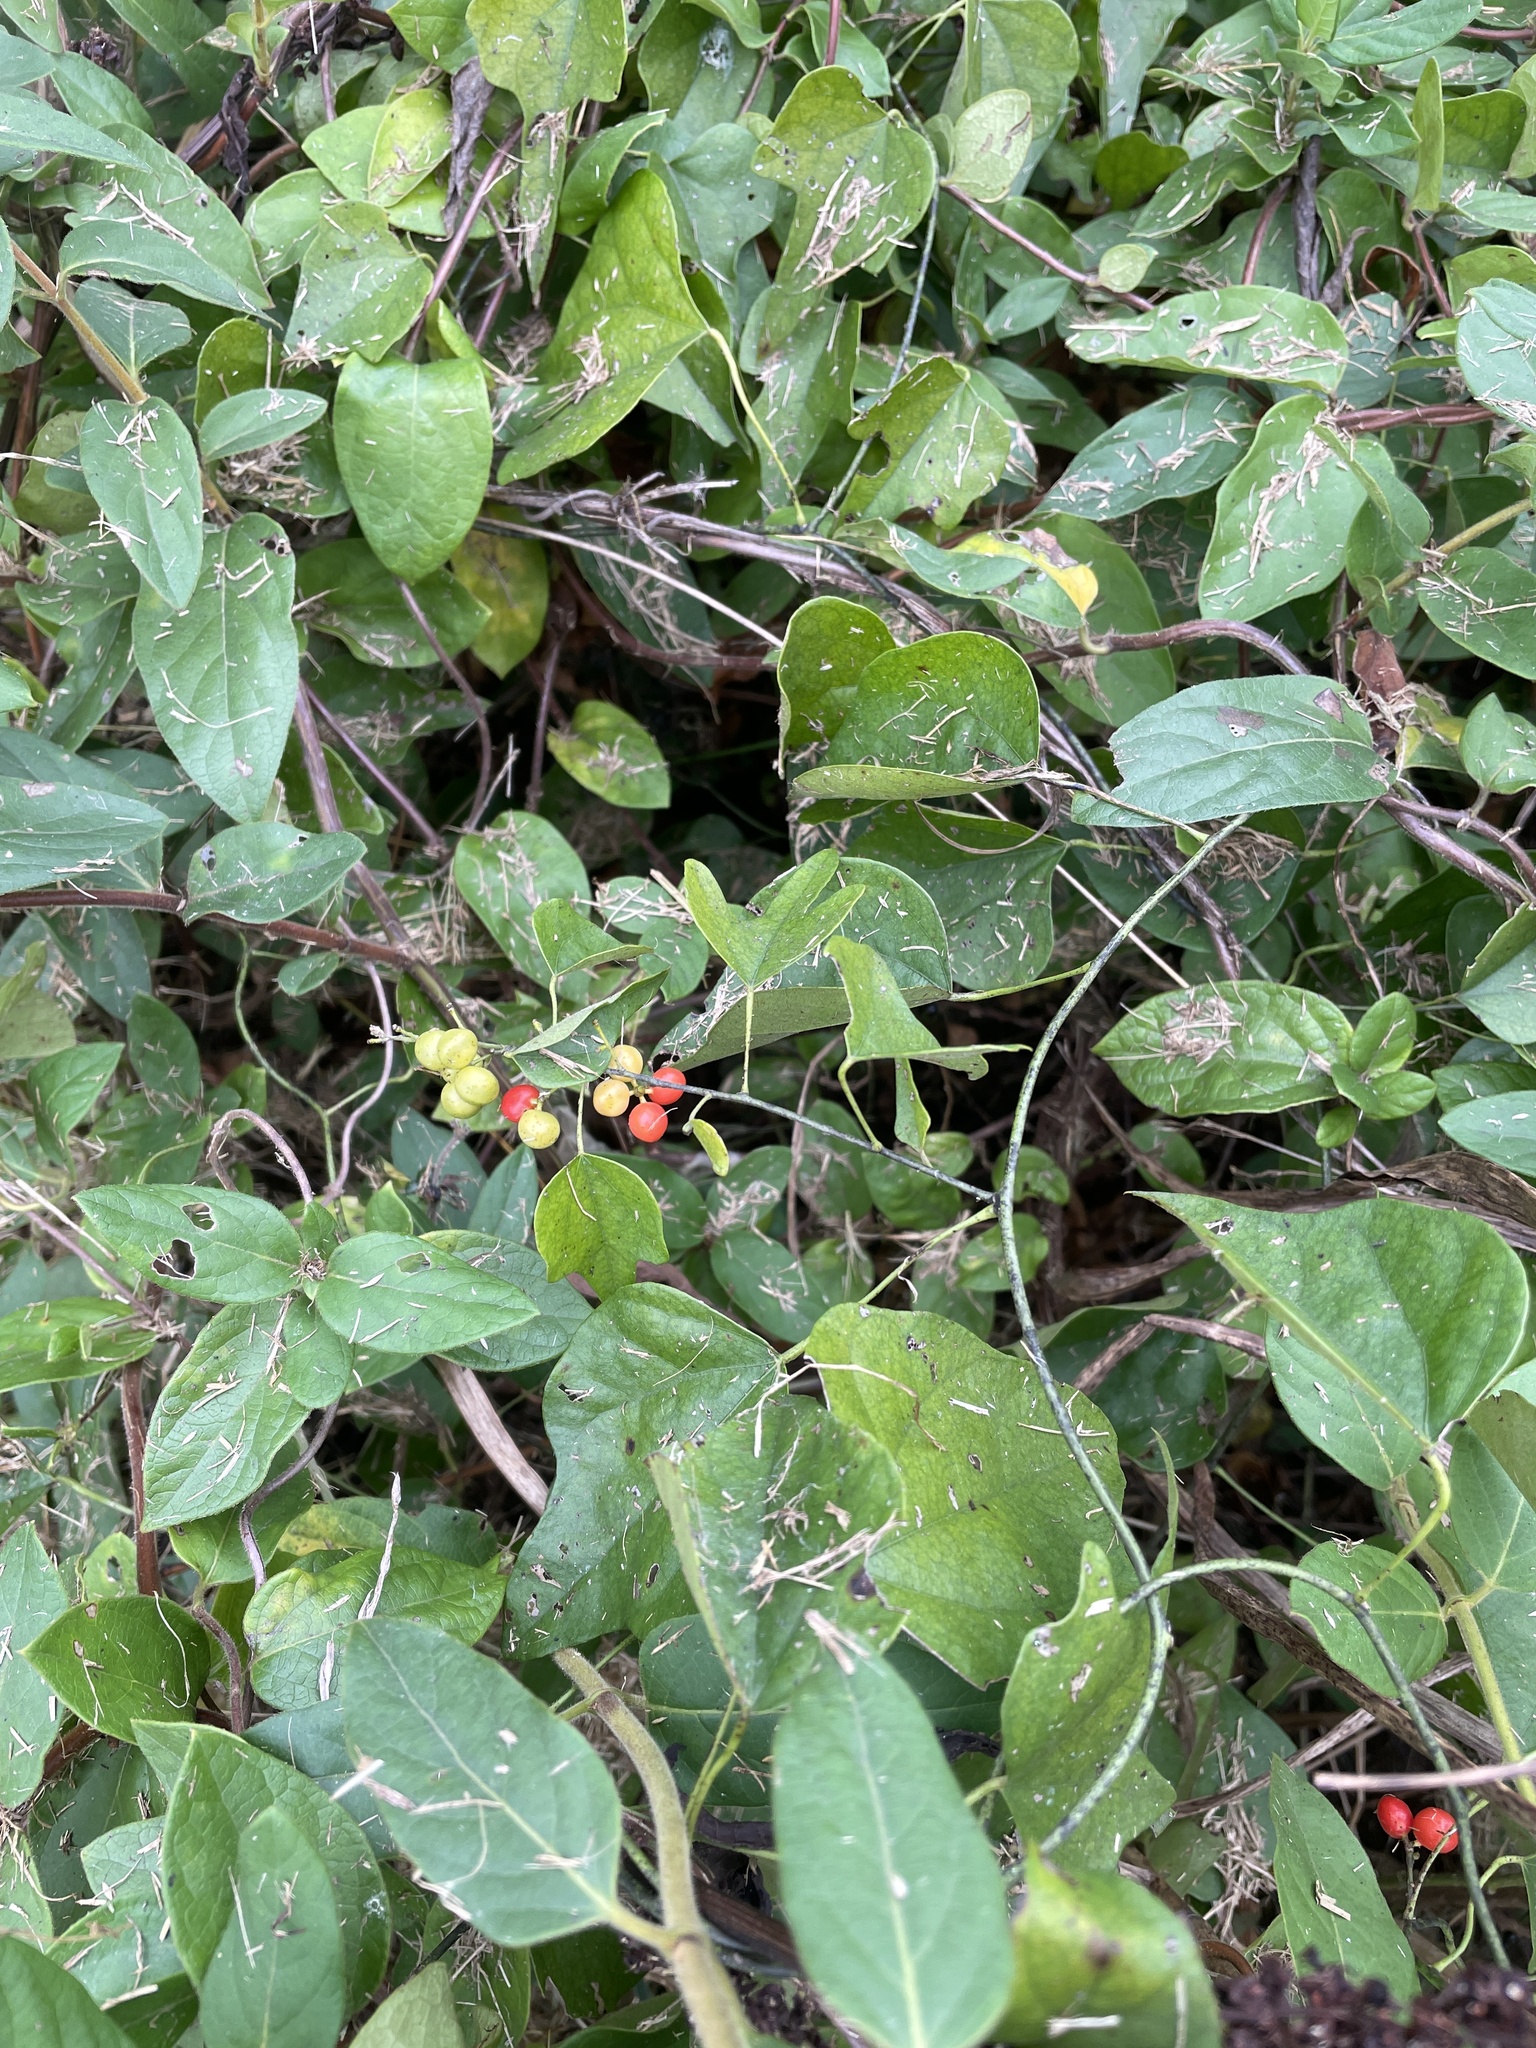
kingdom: Plantae
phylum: Tracheophyta
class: Magnoliopsida
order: Ranunculales
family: Menispermaceae
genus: Cocculus
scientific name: Cocculus carolinus
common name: Carolina moonseed
